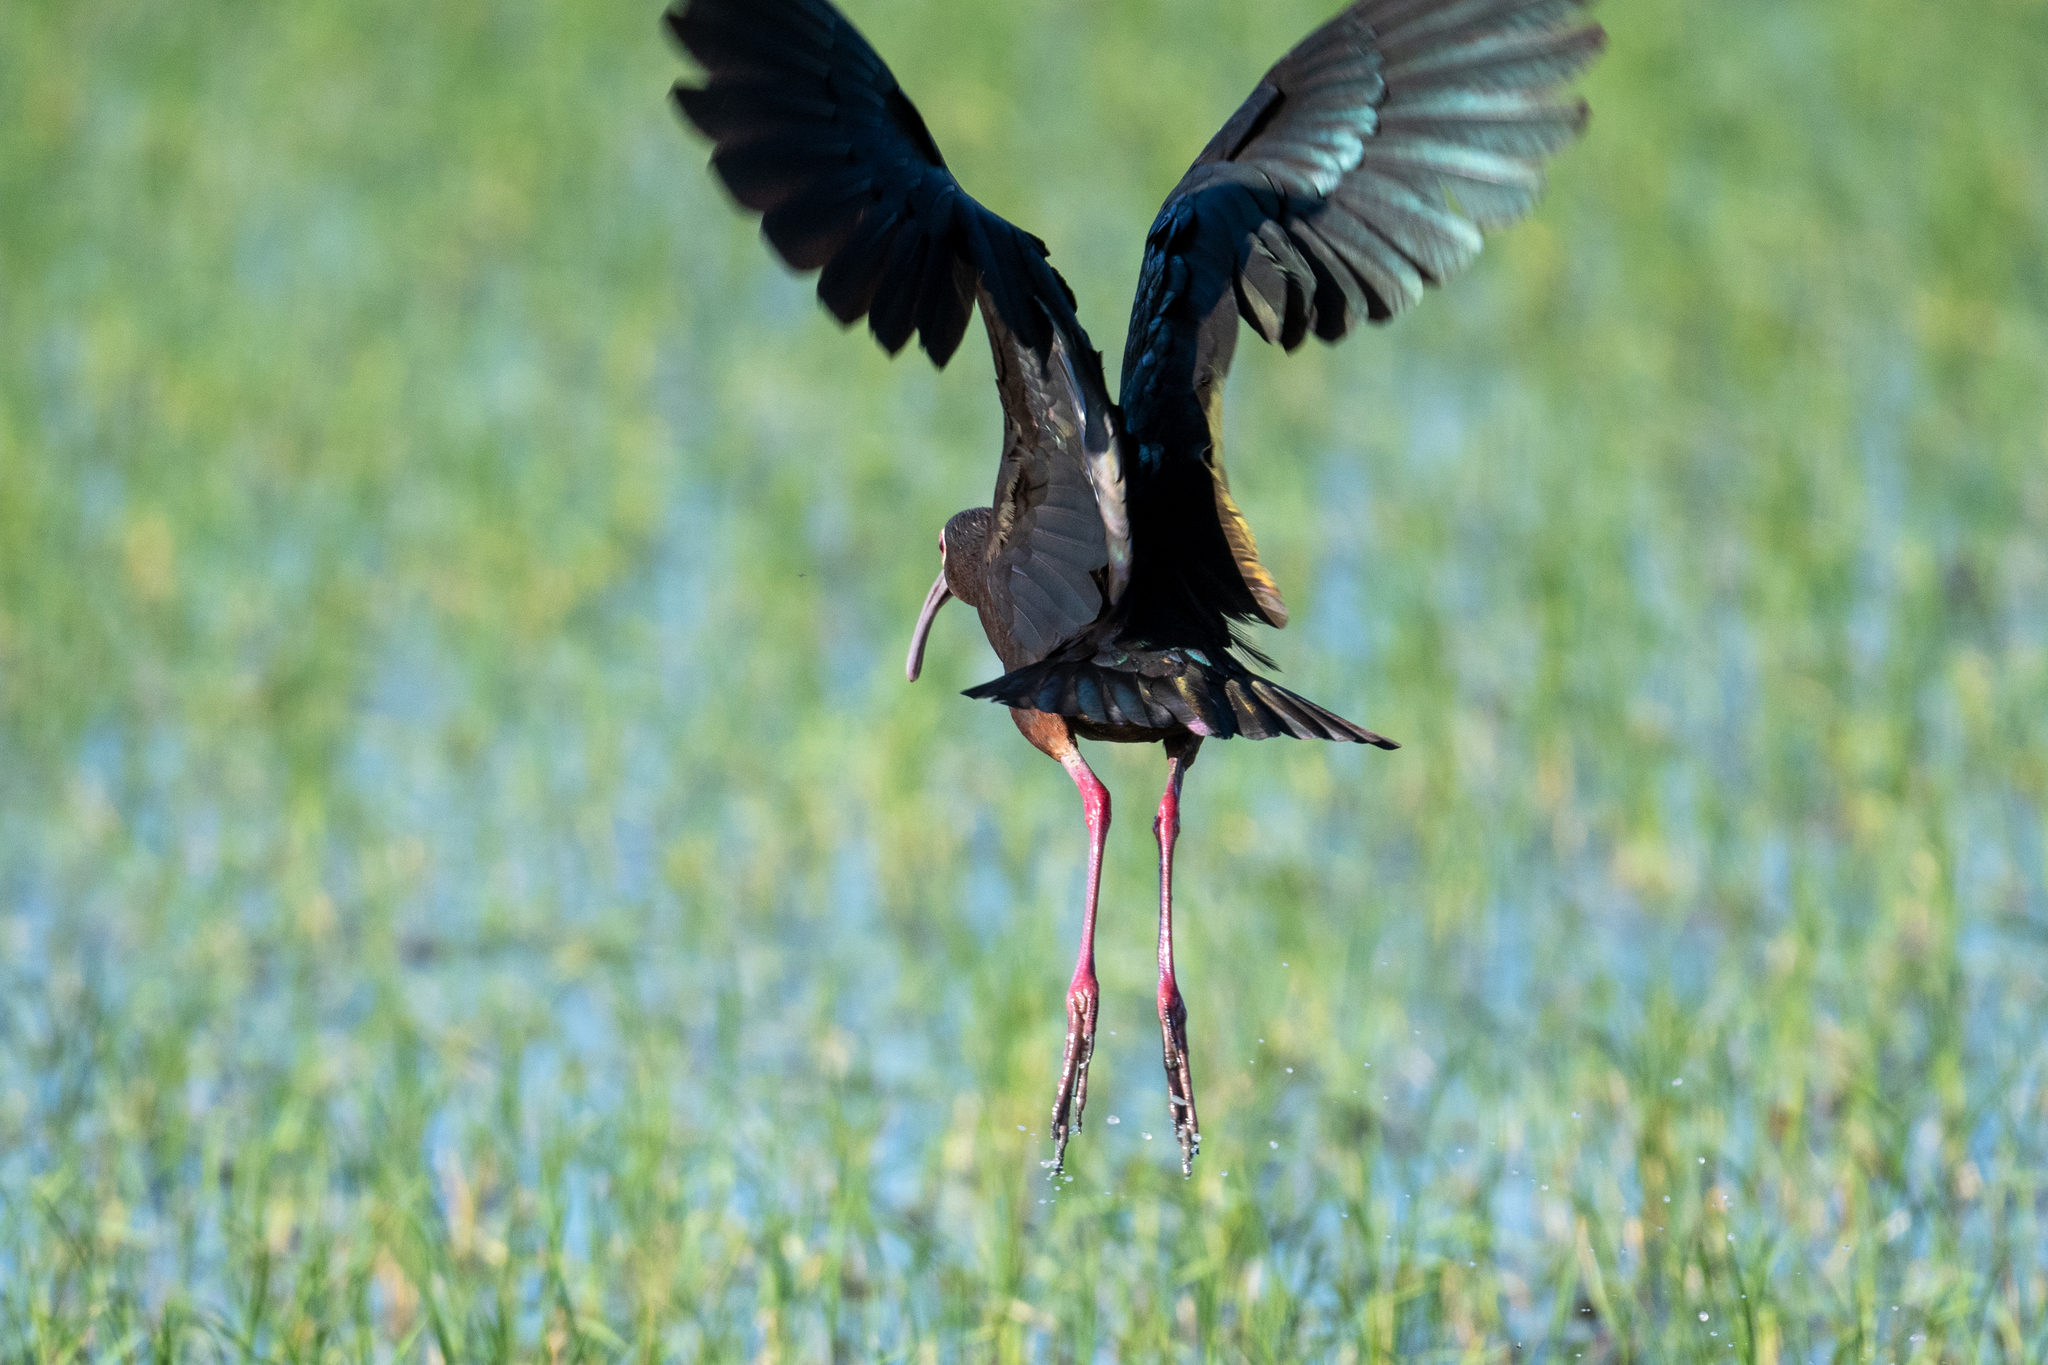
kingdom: Animalia
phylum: Chordata
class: Aves
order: Pelecaniformes
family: Threskiornithidae
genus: Plegadis
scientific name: Plegadis chihi
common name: White-faced ibis
